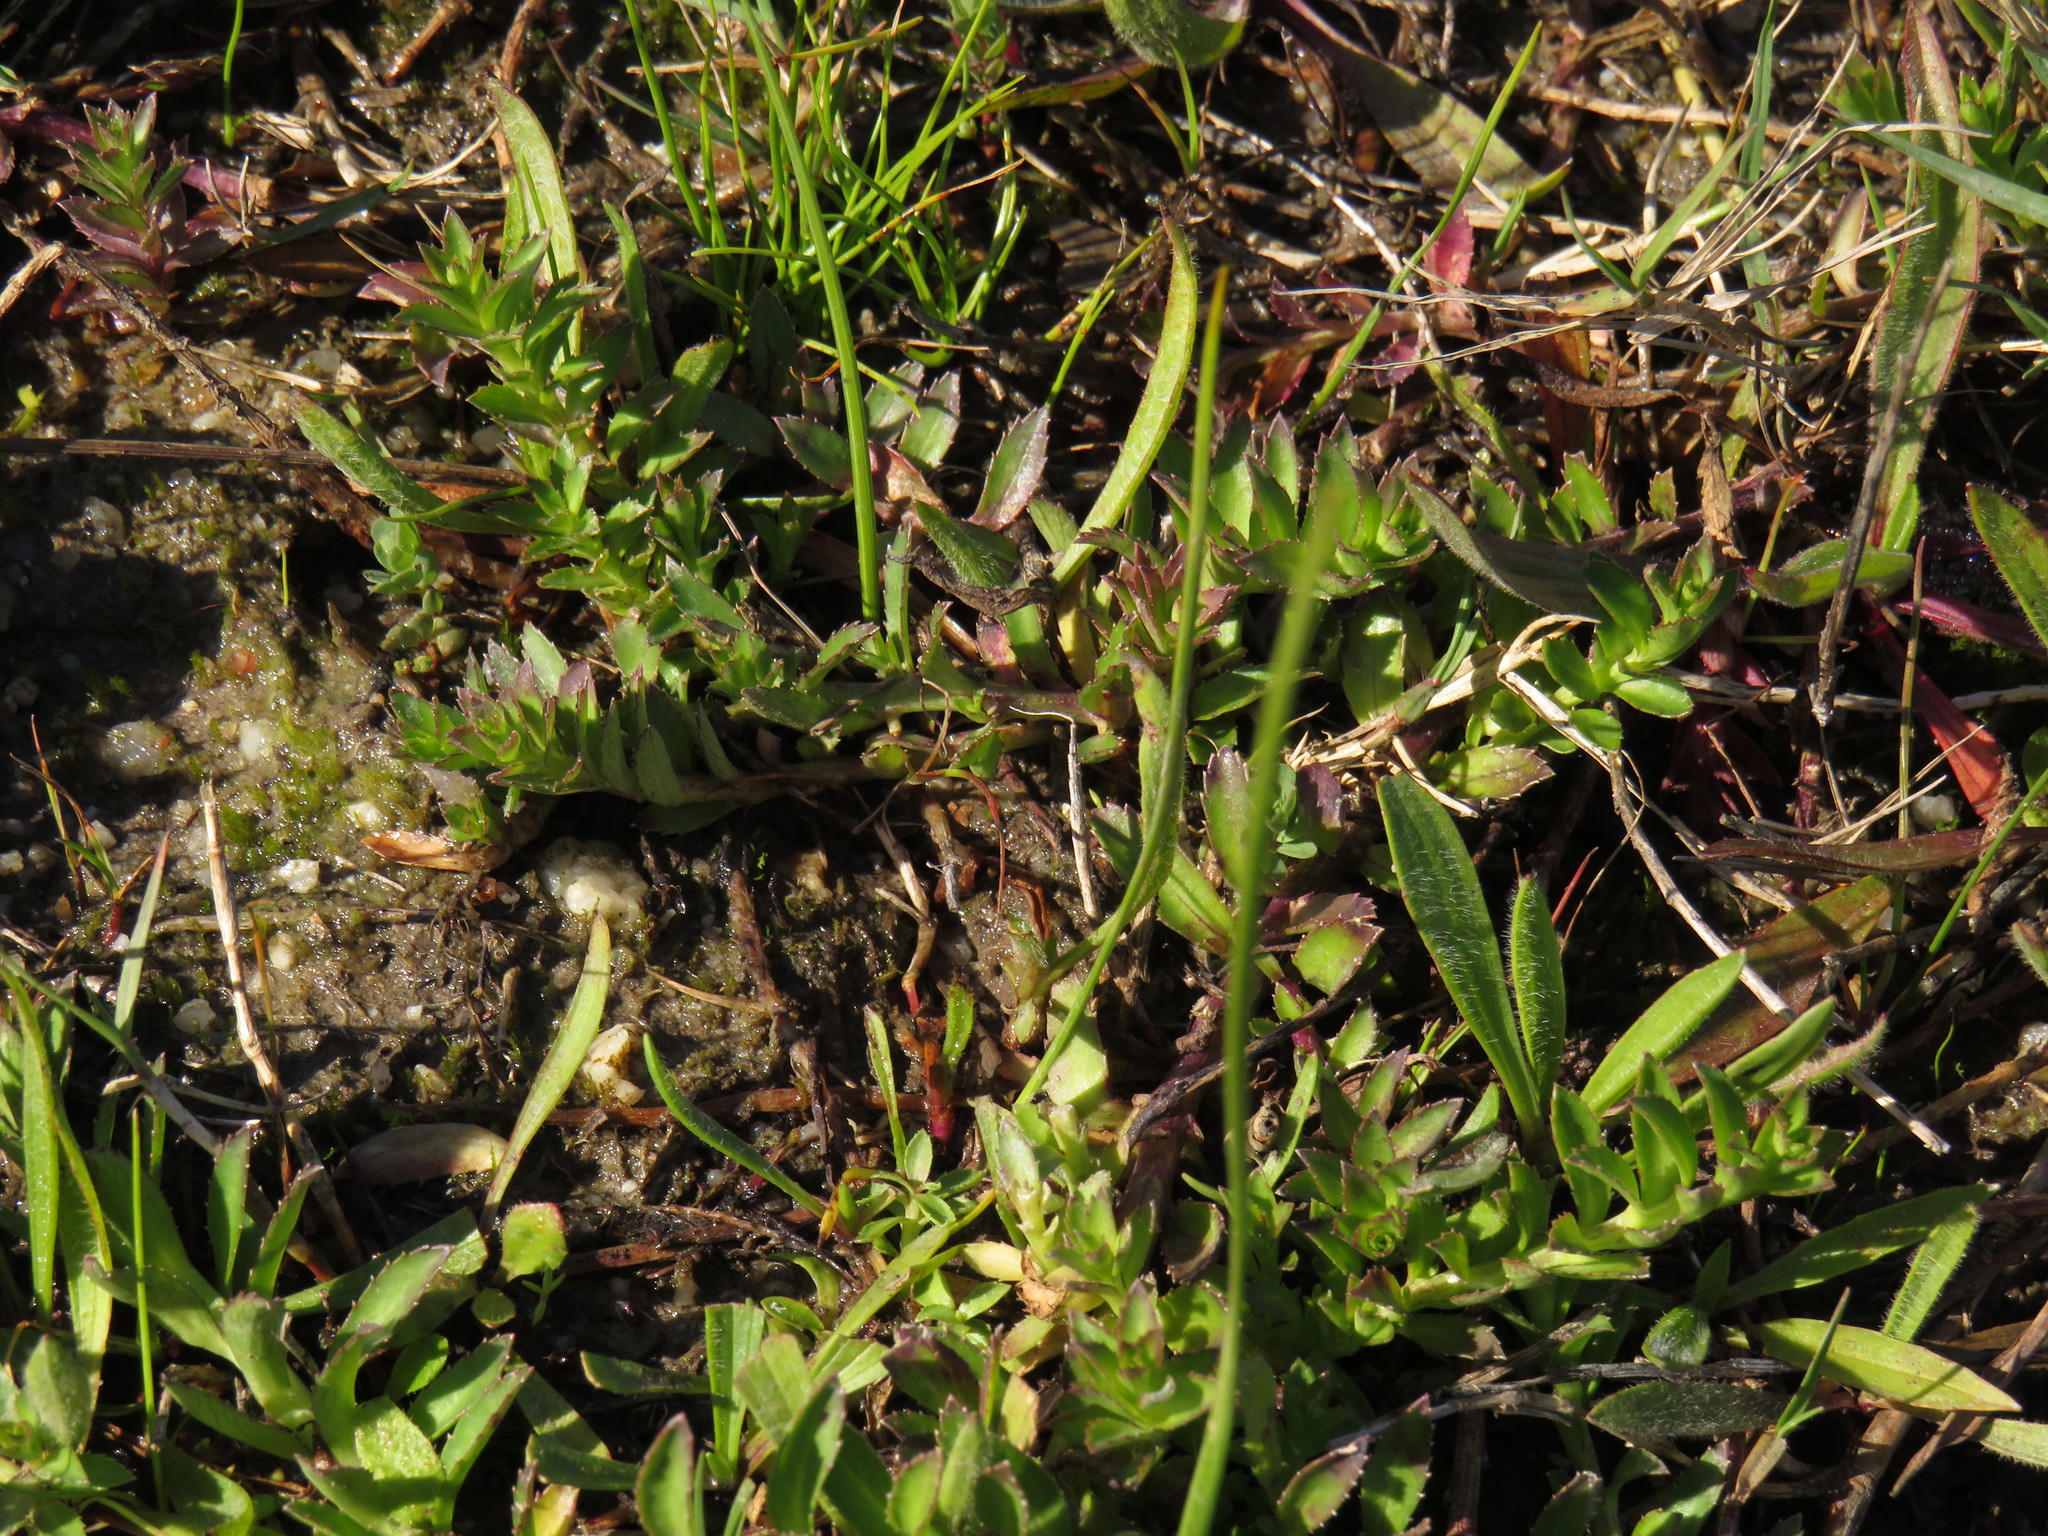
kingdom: Plantae
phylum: Tracheophyta
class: Magnoliopsida
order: Asterales
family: Campanulaceae
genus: Monopsis
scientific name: Monopsis lutea
